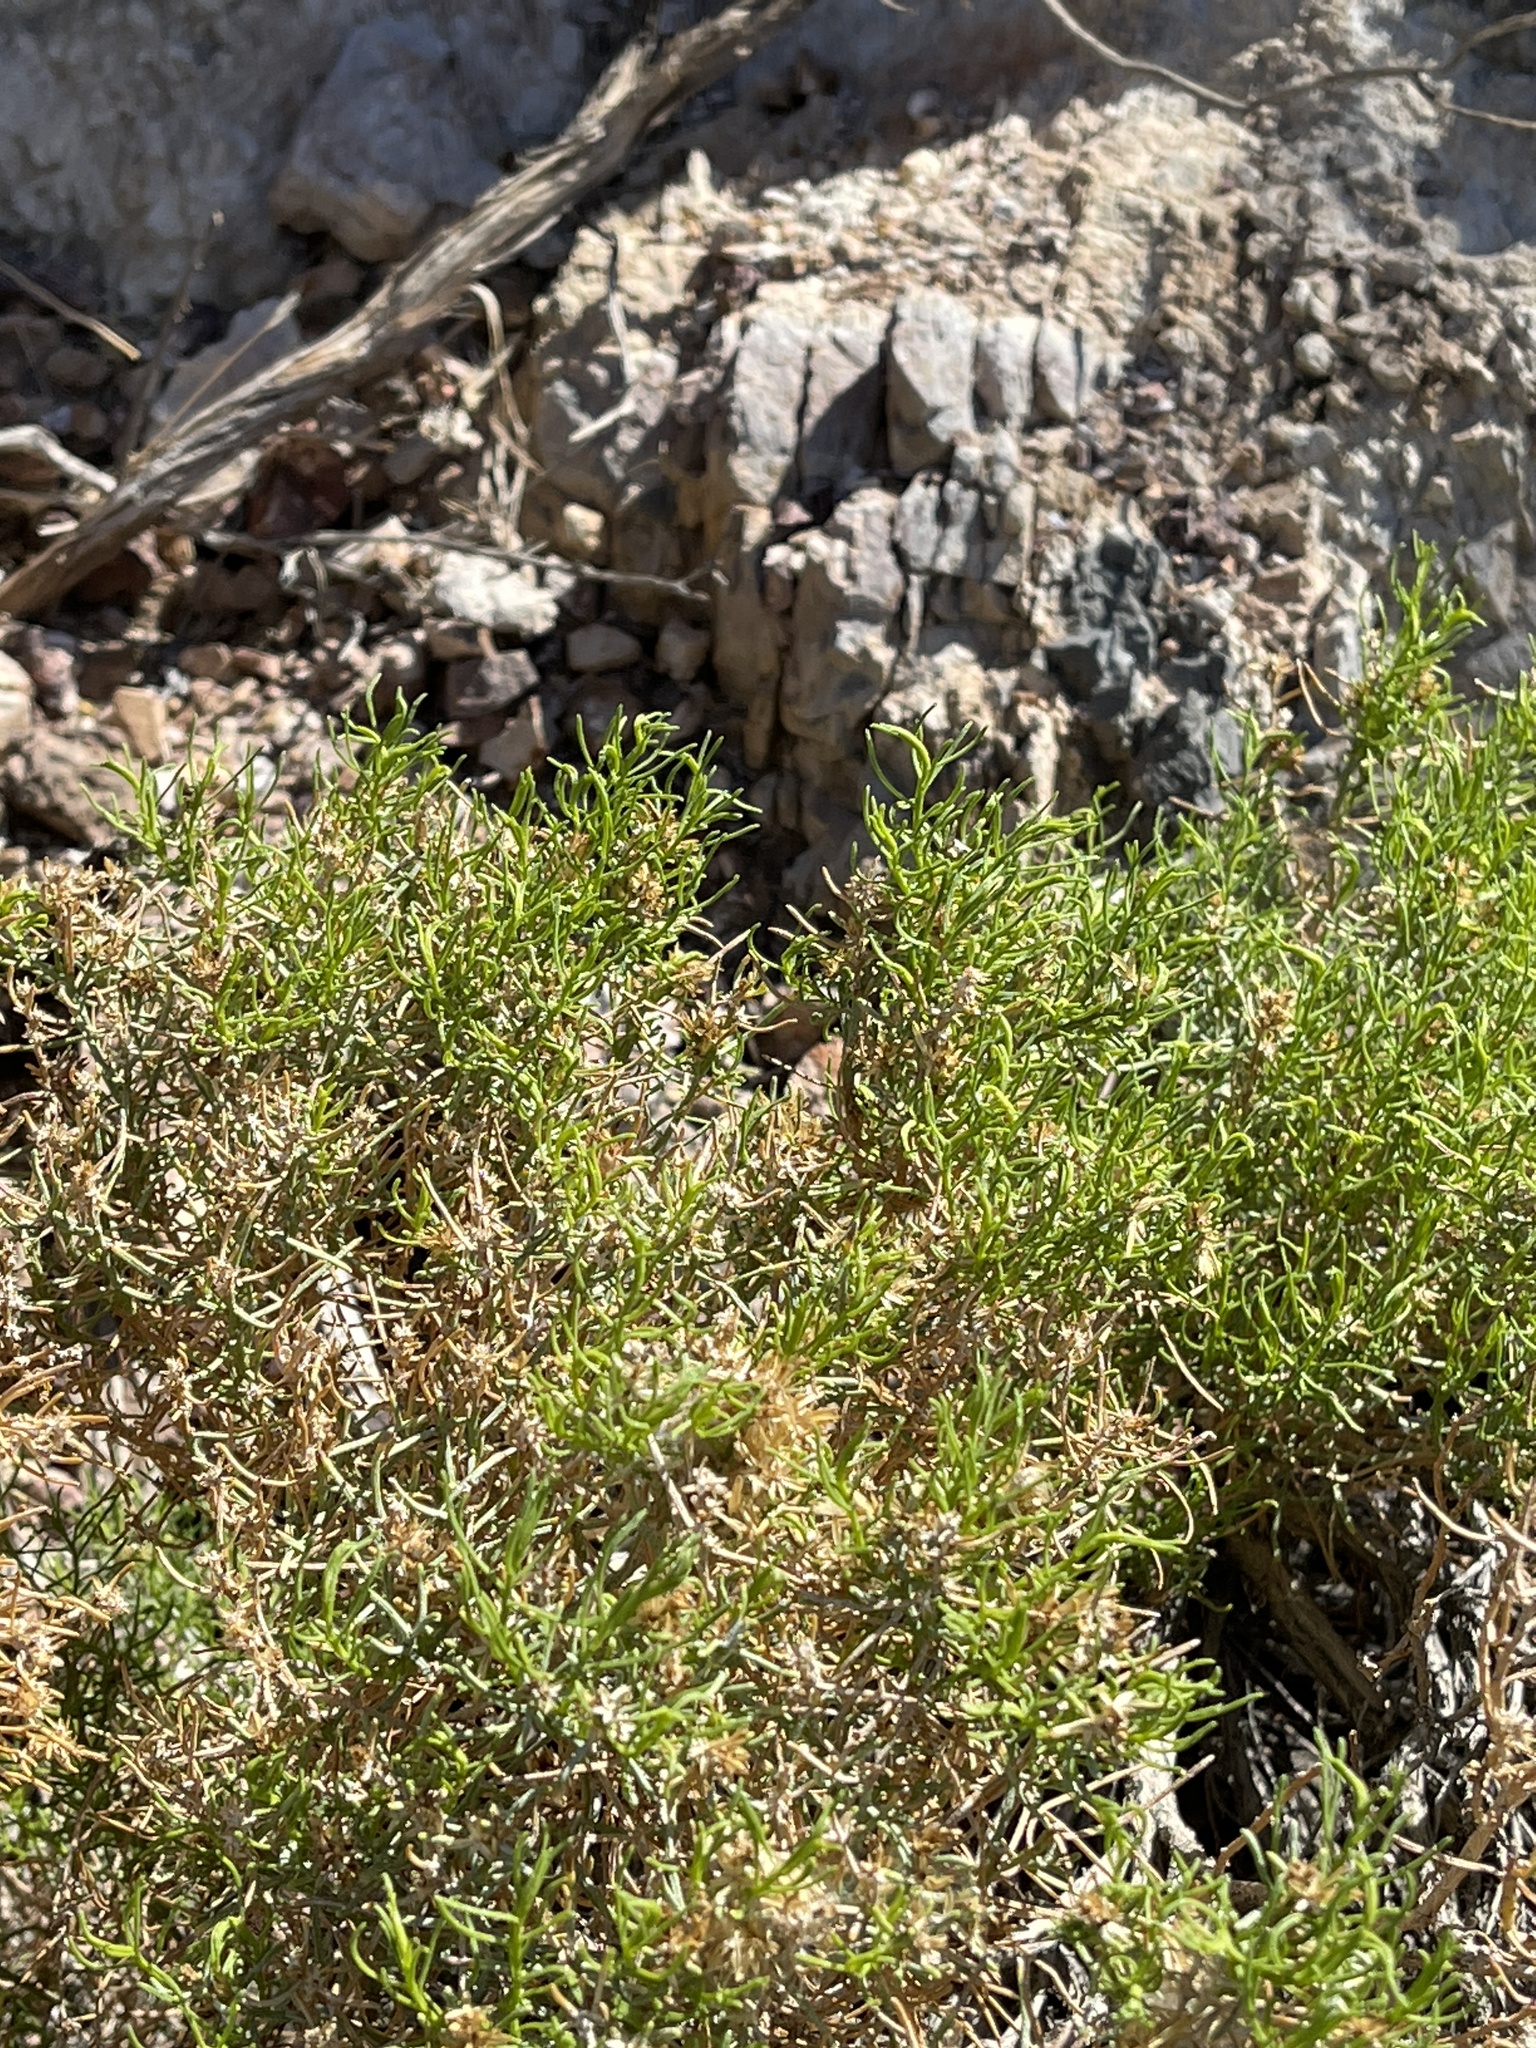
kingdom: Plantae
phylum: Tracheophyta
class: Magnoliopsida
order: Asterales
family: Asteraceae
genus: Peucephyllum
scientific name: Peucephyllum schottii
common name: Pygmy-cedar
